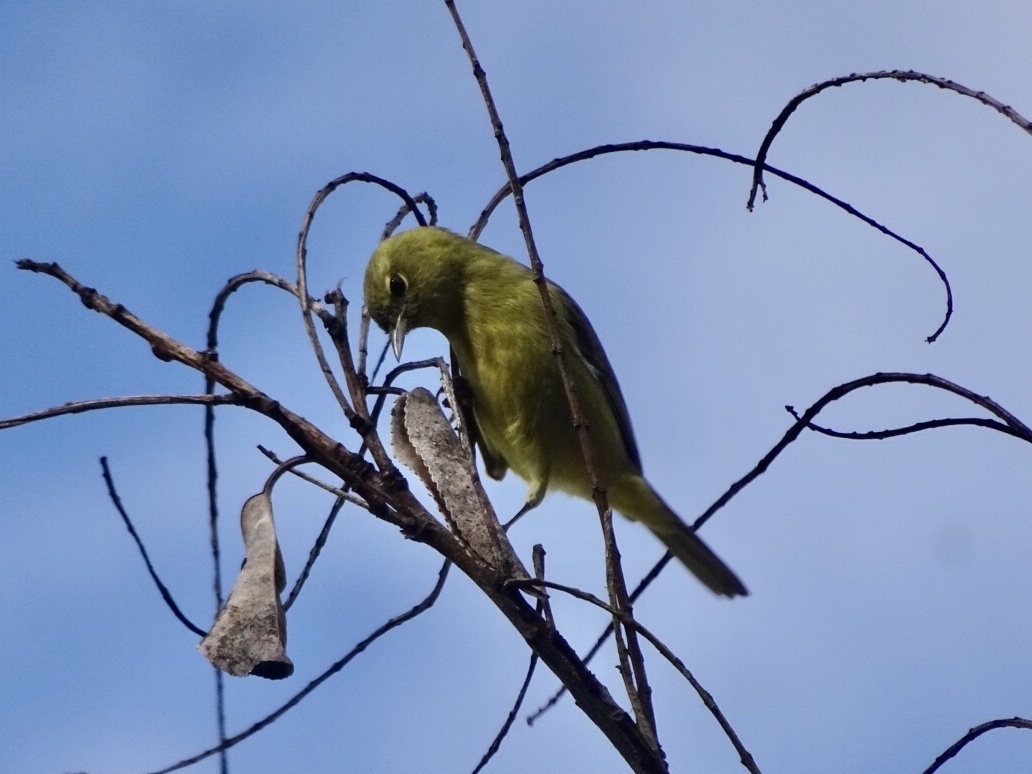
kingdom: Animalia
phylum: Chordata
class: Aves
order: Passeriformes
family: Parulidae
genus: Leiothlypis
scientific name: Leiothlypis celata
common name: Orange-crowned warbler
